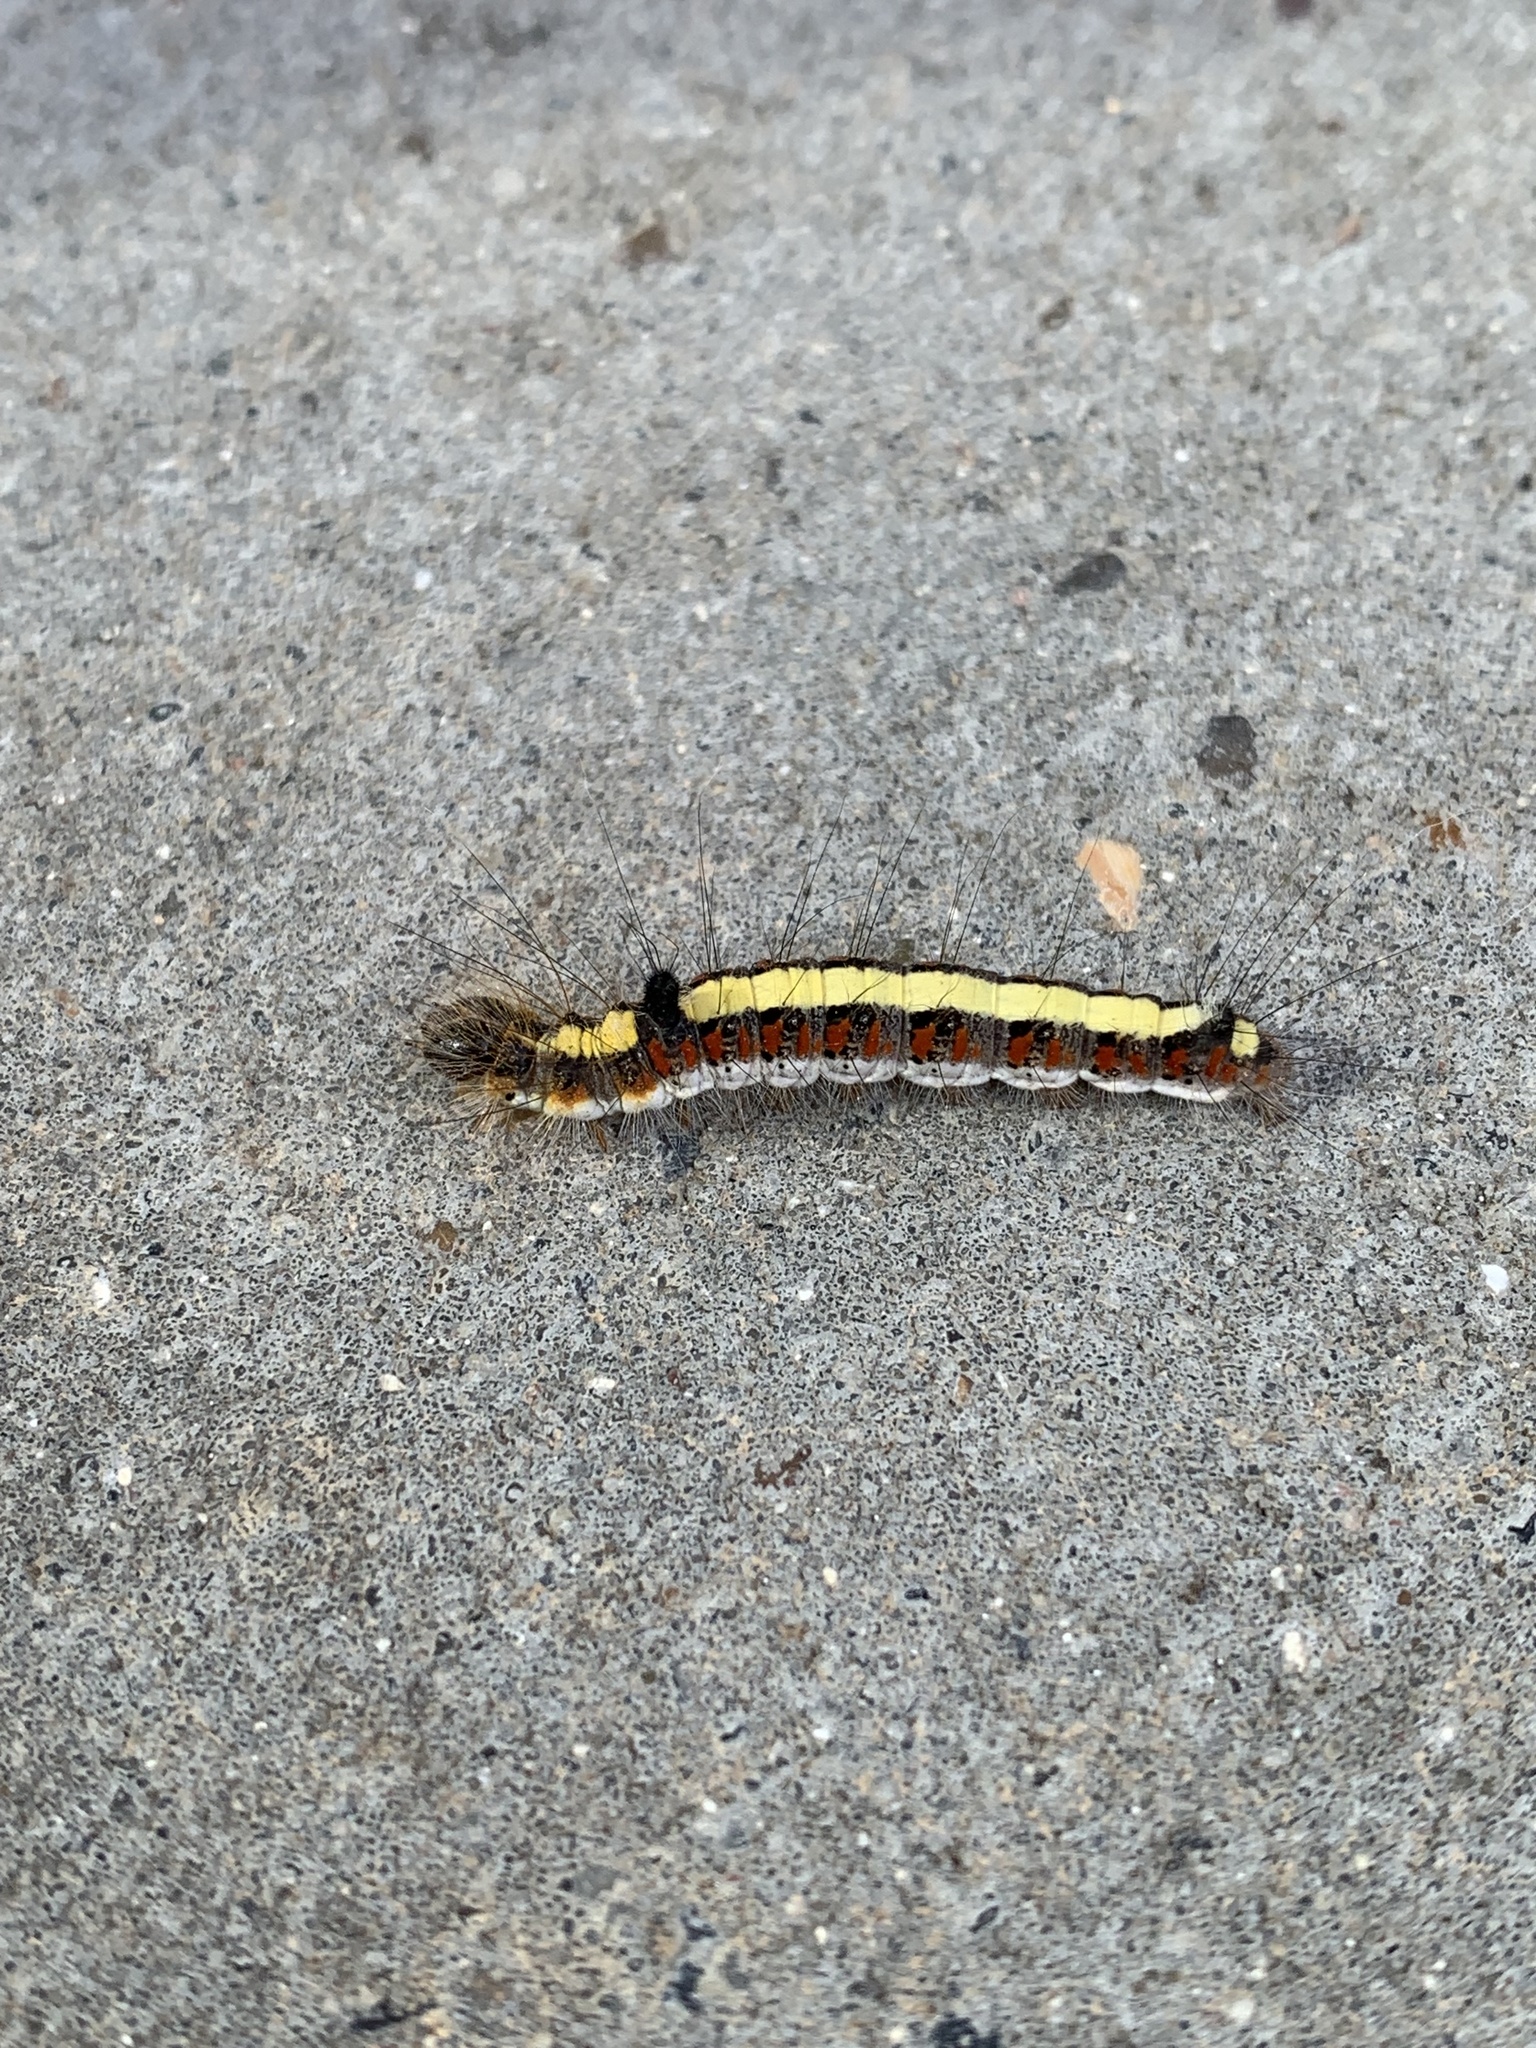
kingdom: Animalia
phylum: Arthropoda
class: Insecta
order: Lepidoptera
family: Noctuidae
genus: Acronicta
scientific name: Acronicta psi
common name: Grey dagger
